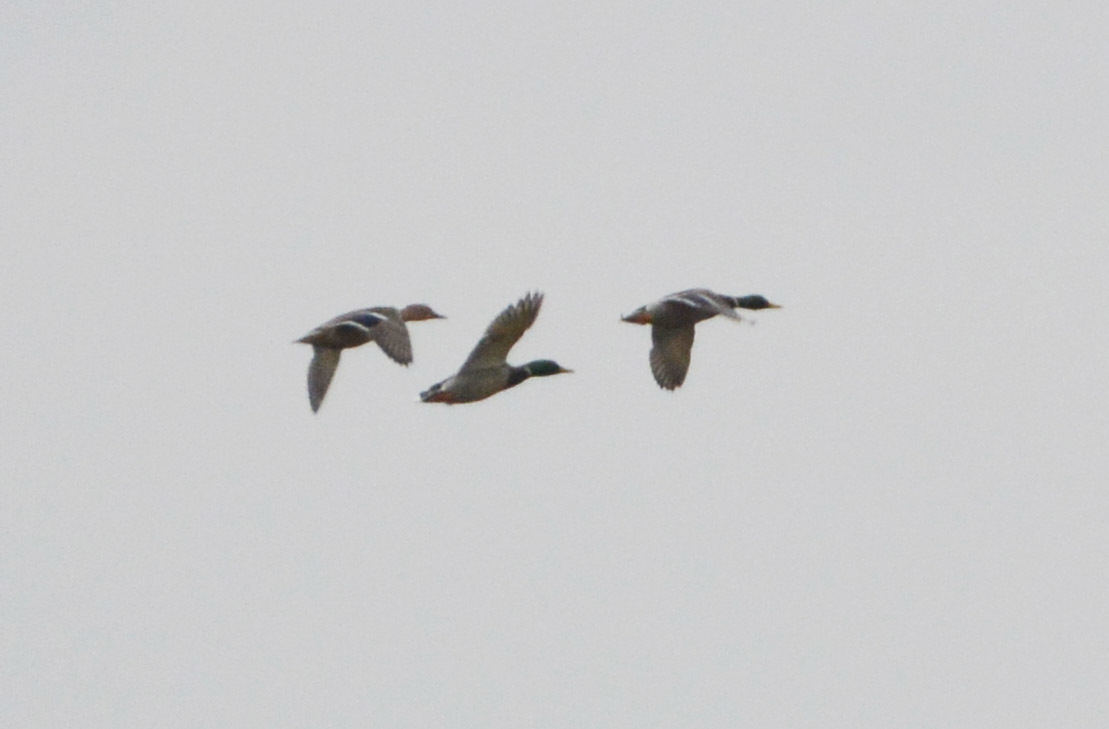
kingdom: Animalia
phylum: Chordata
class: Aves
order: Anseriformes
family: Anatidae
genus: Anas
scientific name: Anas platyrhynchos
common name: Mallard
